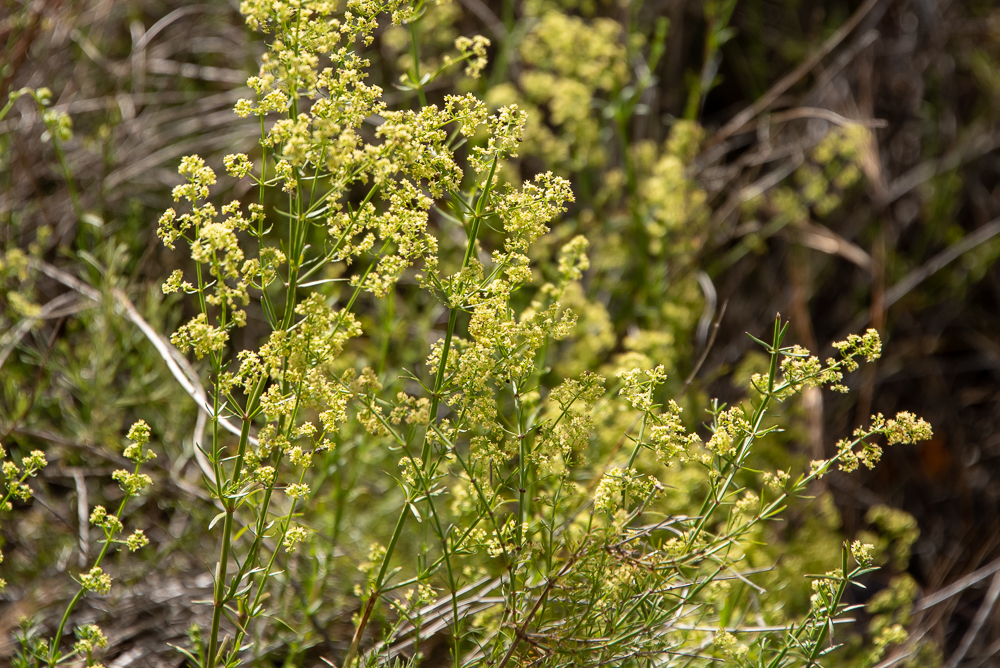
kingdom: Plantae
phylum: Tracheophyta
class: Magnoliopsida
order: Gentianales
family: Rubiaceae
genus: Galium
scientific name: Galium angustifolium
